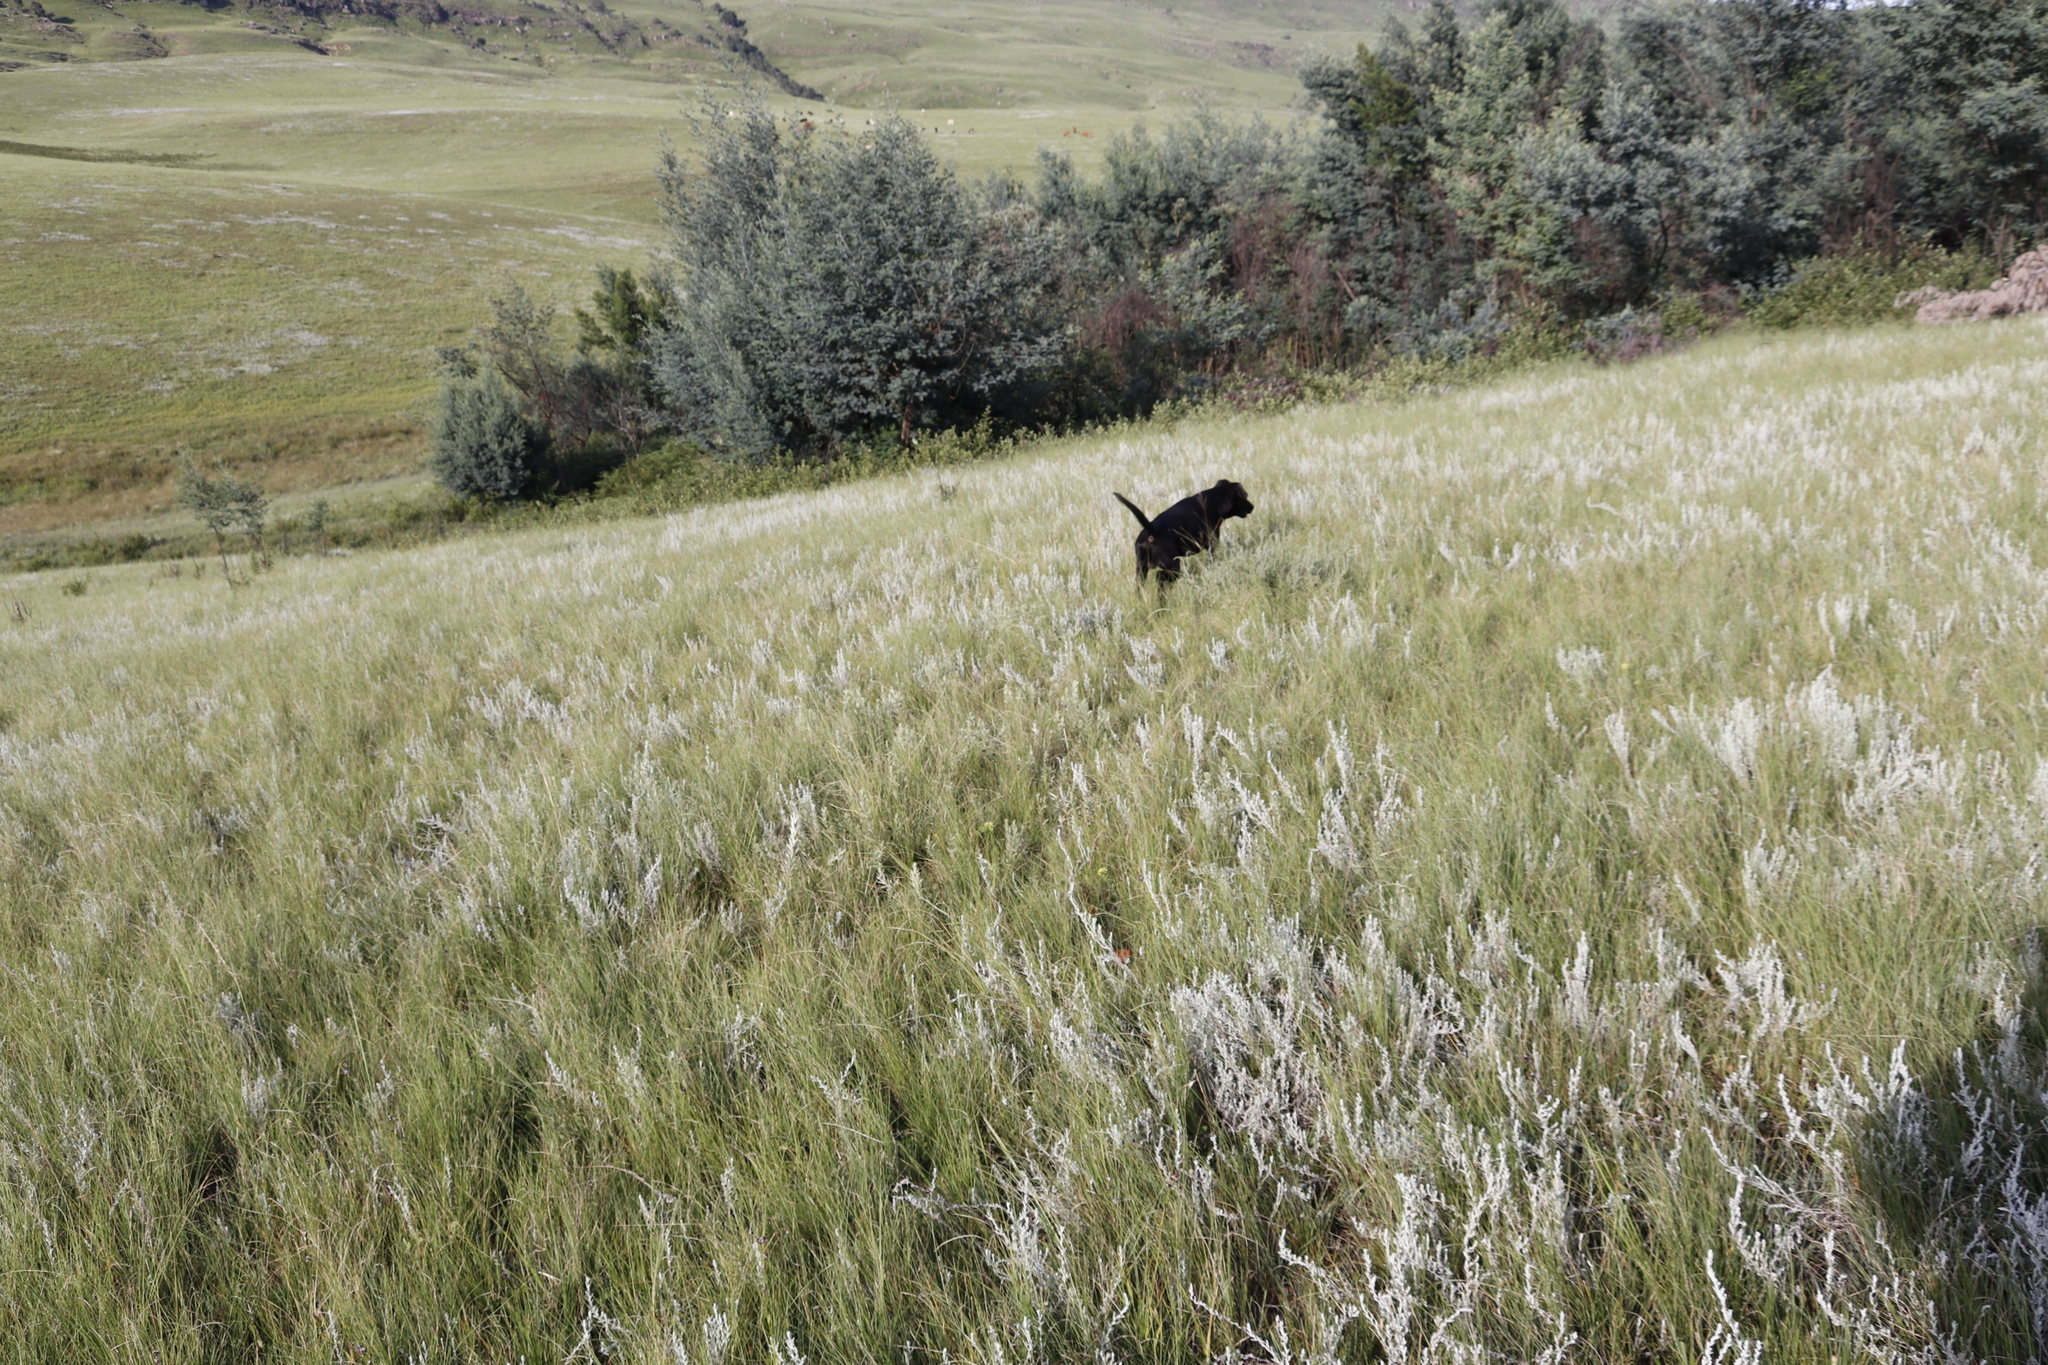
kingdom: Plantae
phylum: Tracheophyta
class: Magnoliopsida
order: Asterales
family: Asteraceae
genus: Helichrysum
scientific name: Helichrysum aureonitens
